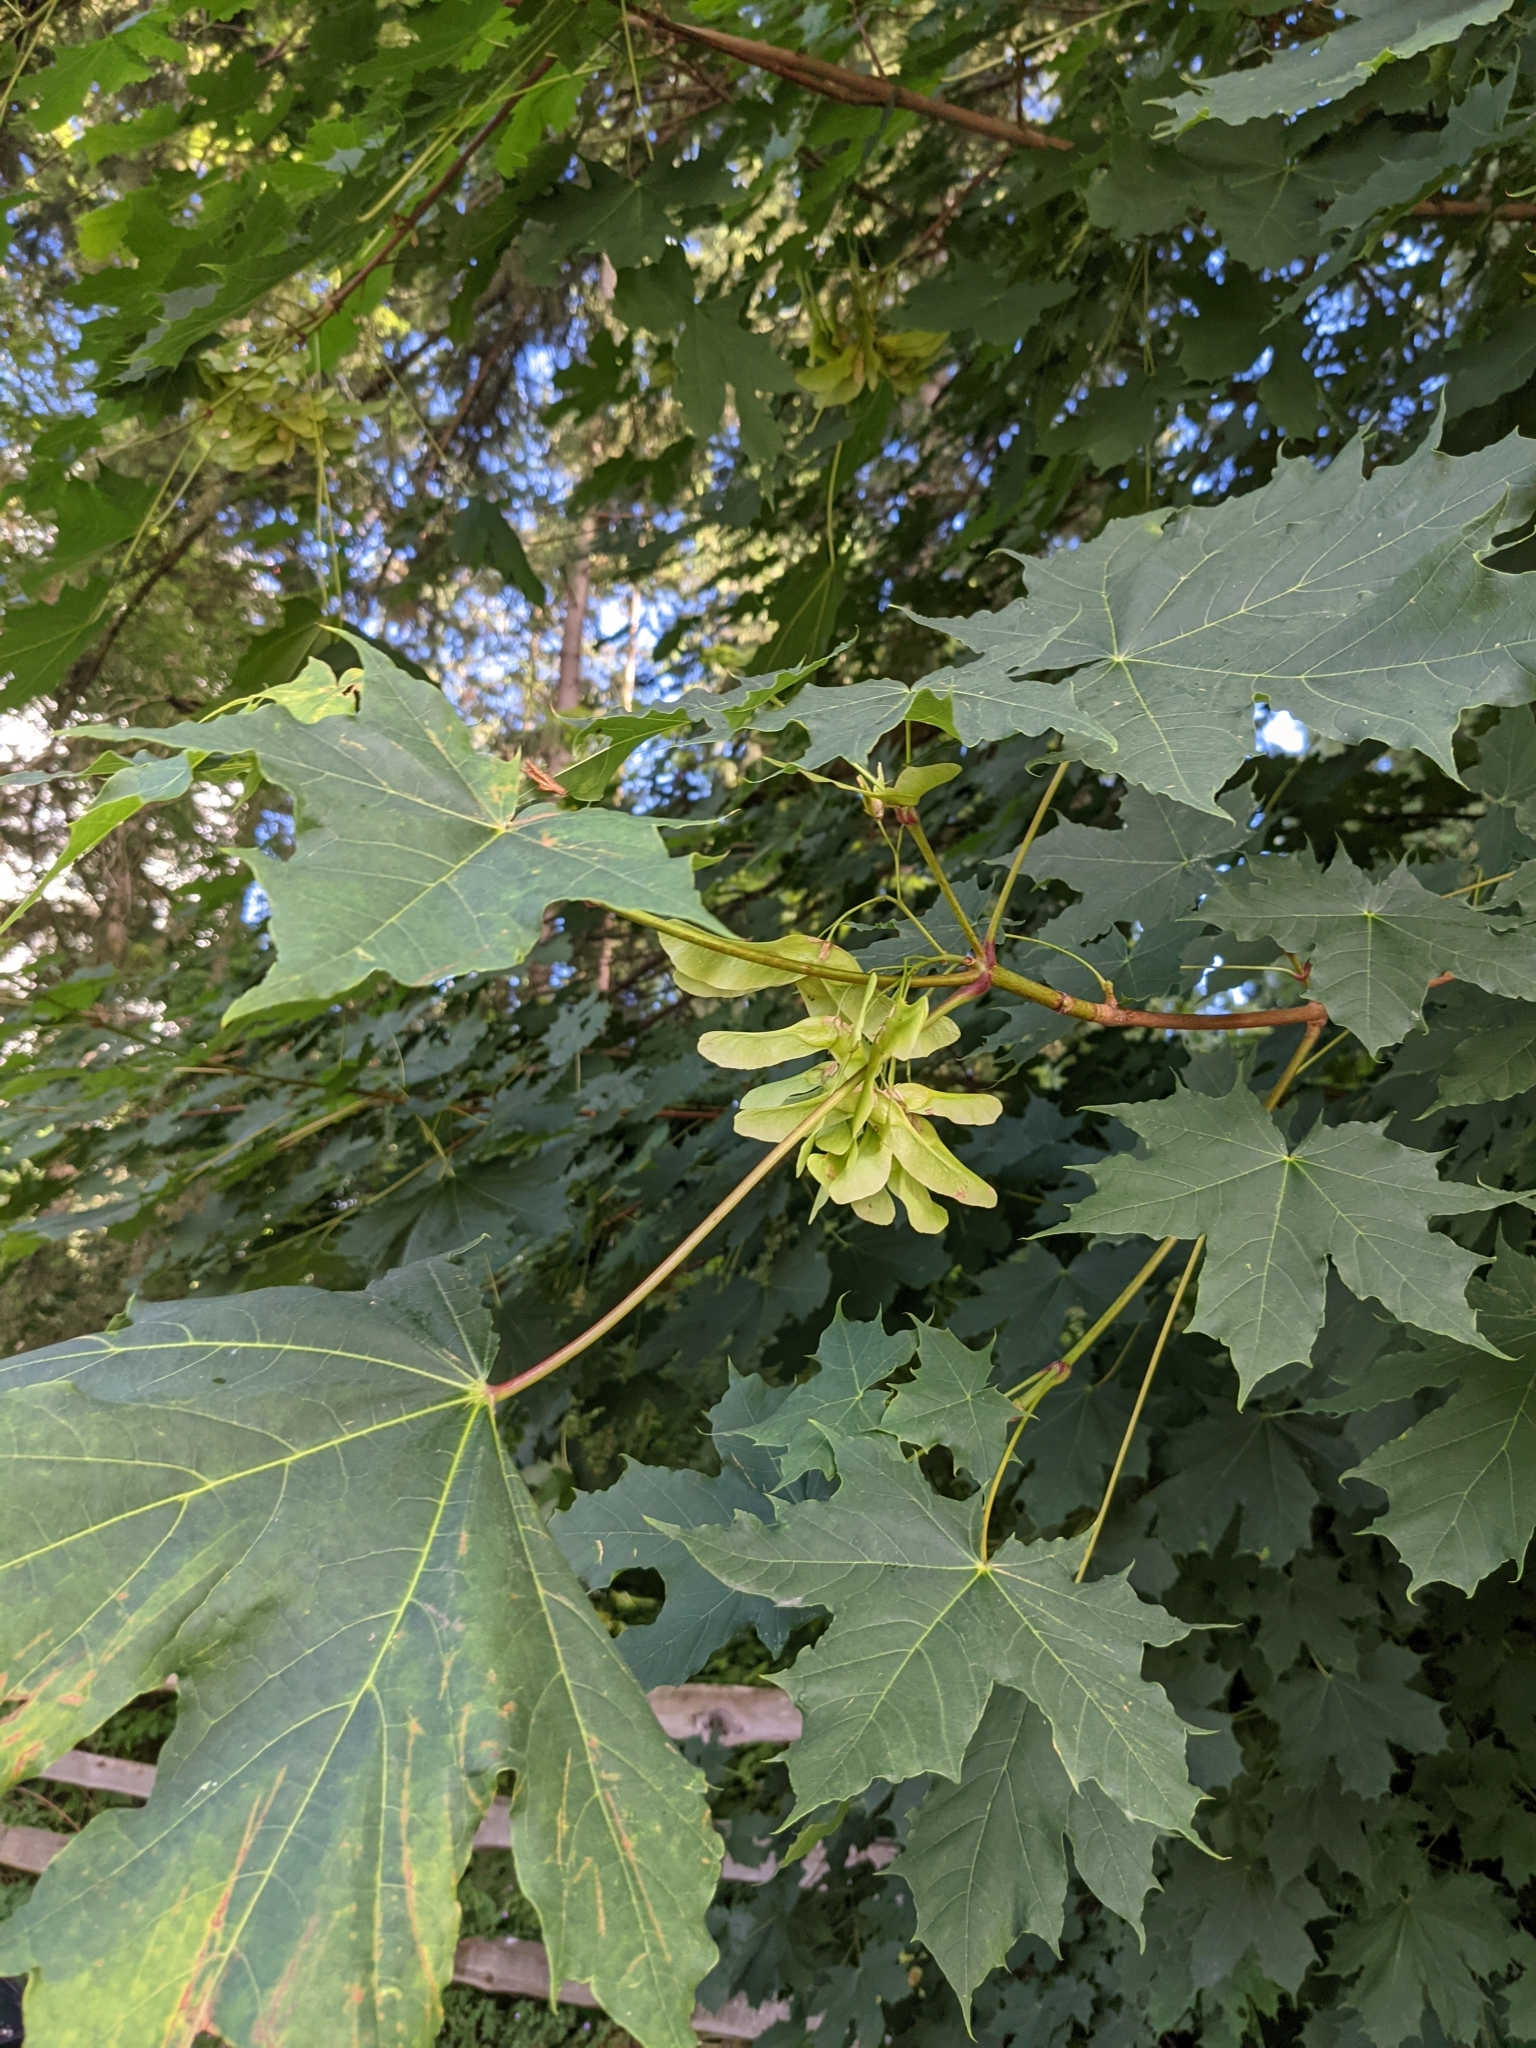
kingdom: Plantae
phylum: Tracheophyta
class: Magnoliopsida
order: Sapindales
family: Sapindaceae
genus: Acer
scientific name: Acer platanoides
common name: Norway maple
